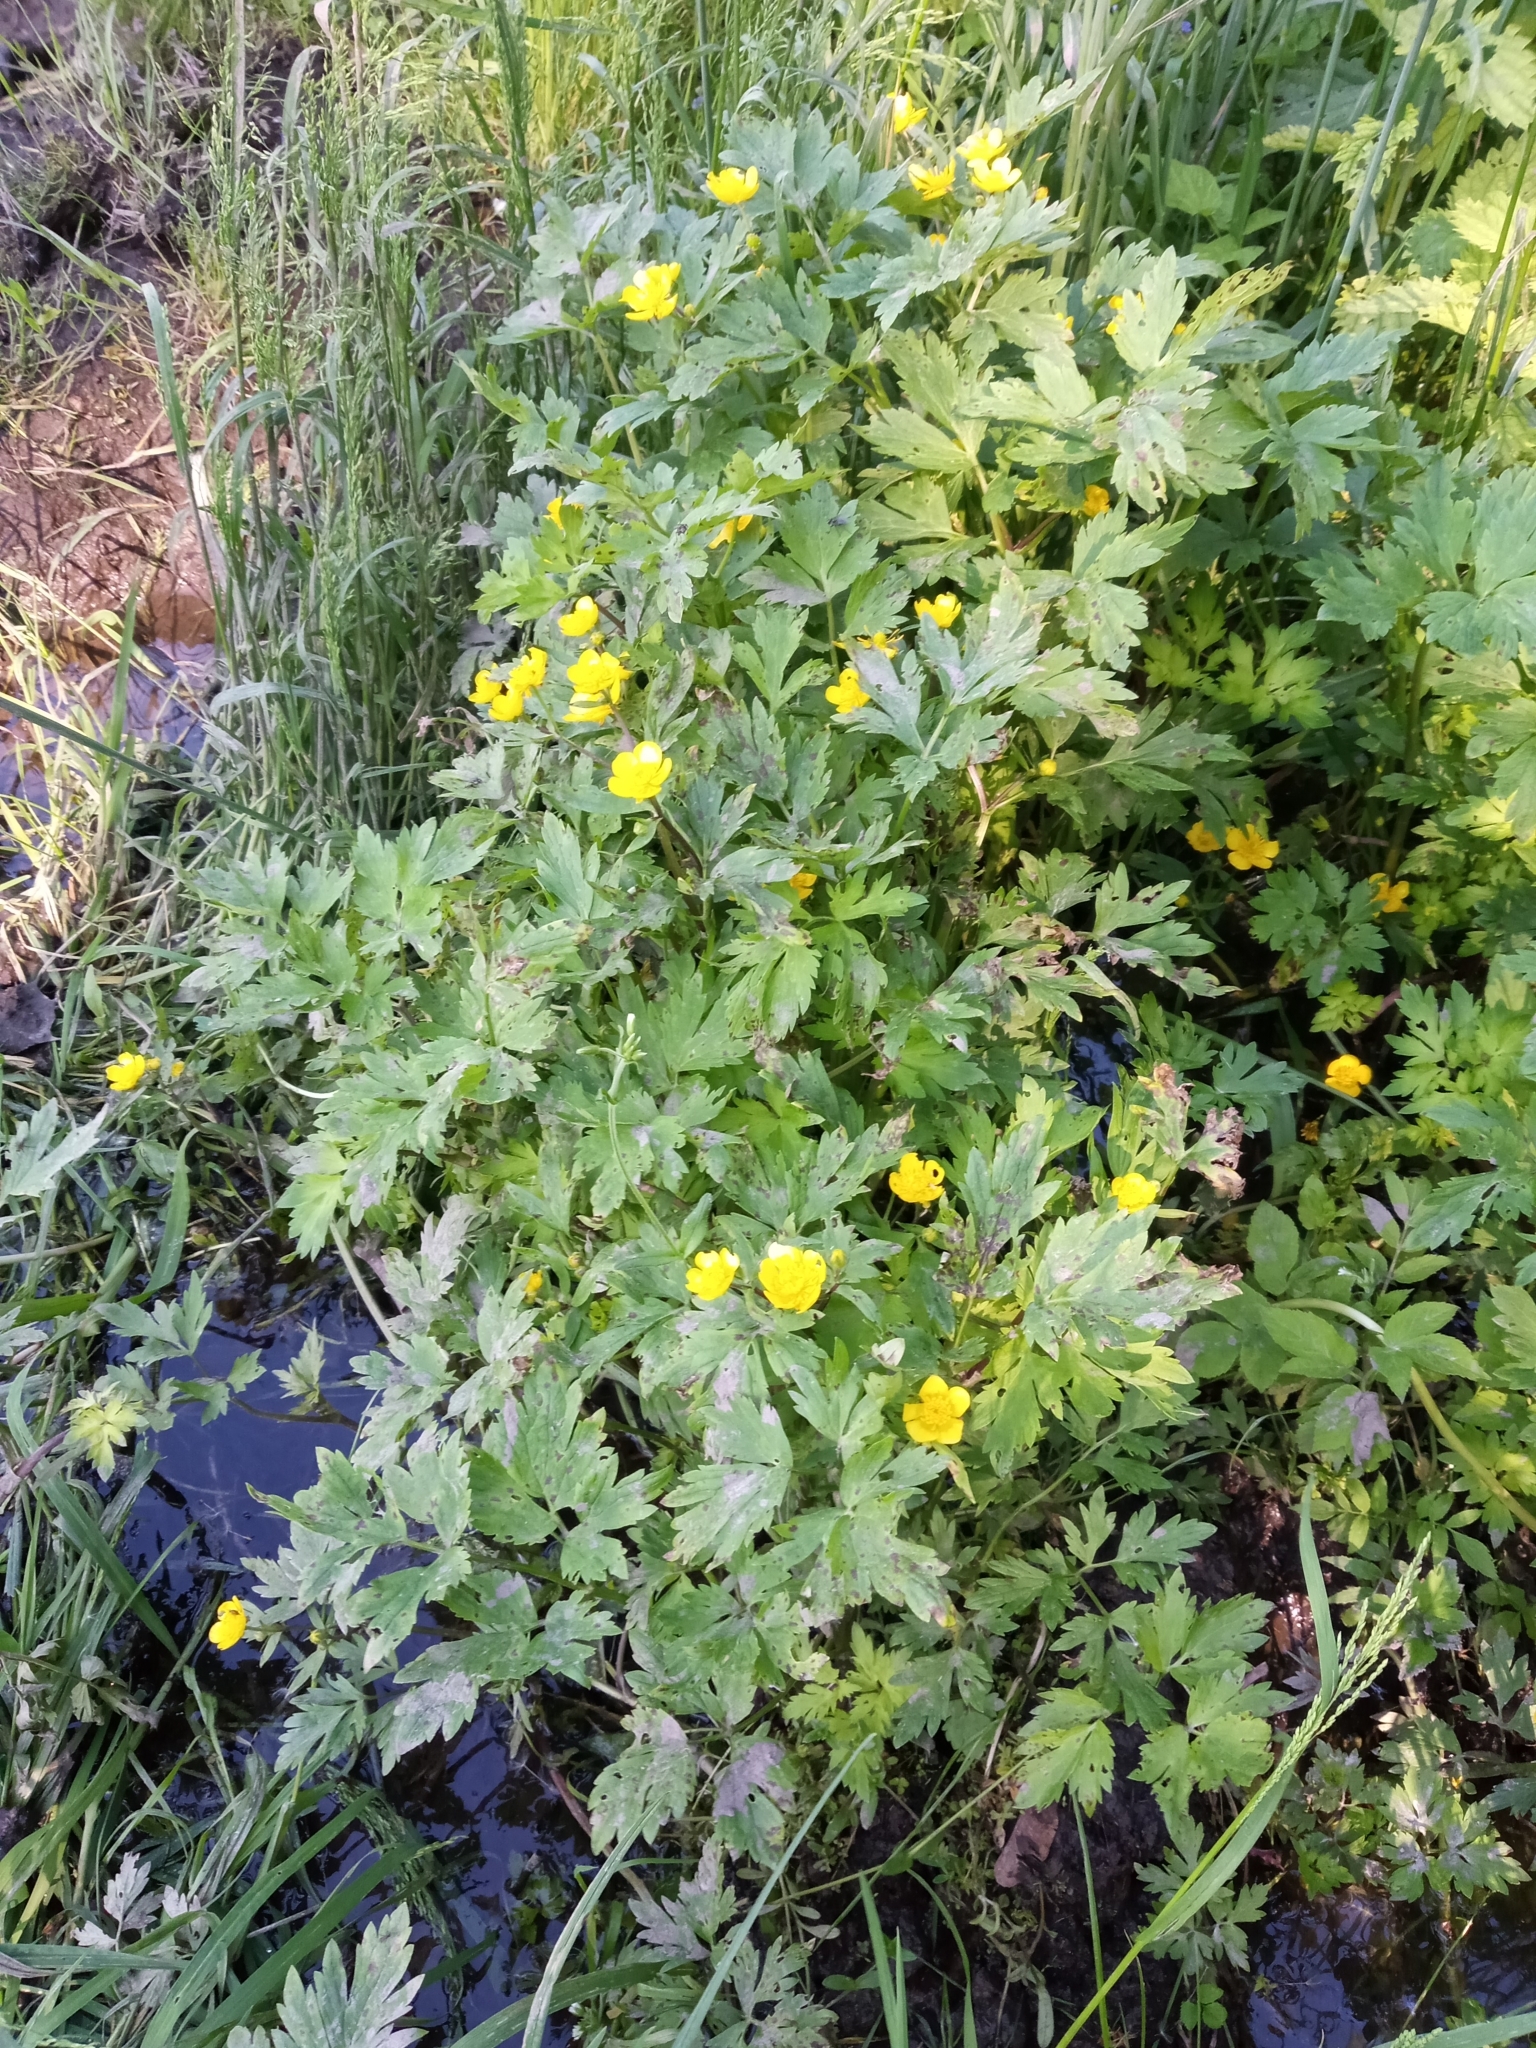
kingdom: Plantae
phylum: Tracheophyta
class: Magnoliopsida
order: Ranunculales
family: Ranunculaceae
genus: Ranunculus
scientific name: Ranunculus repens
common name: Creeping buttercup
